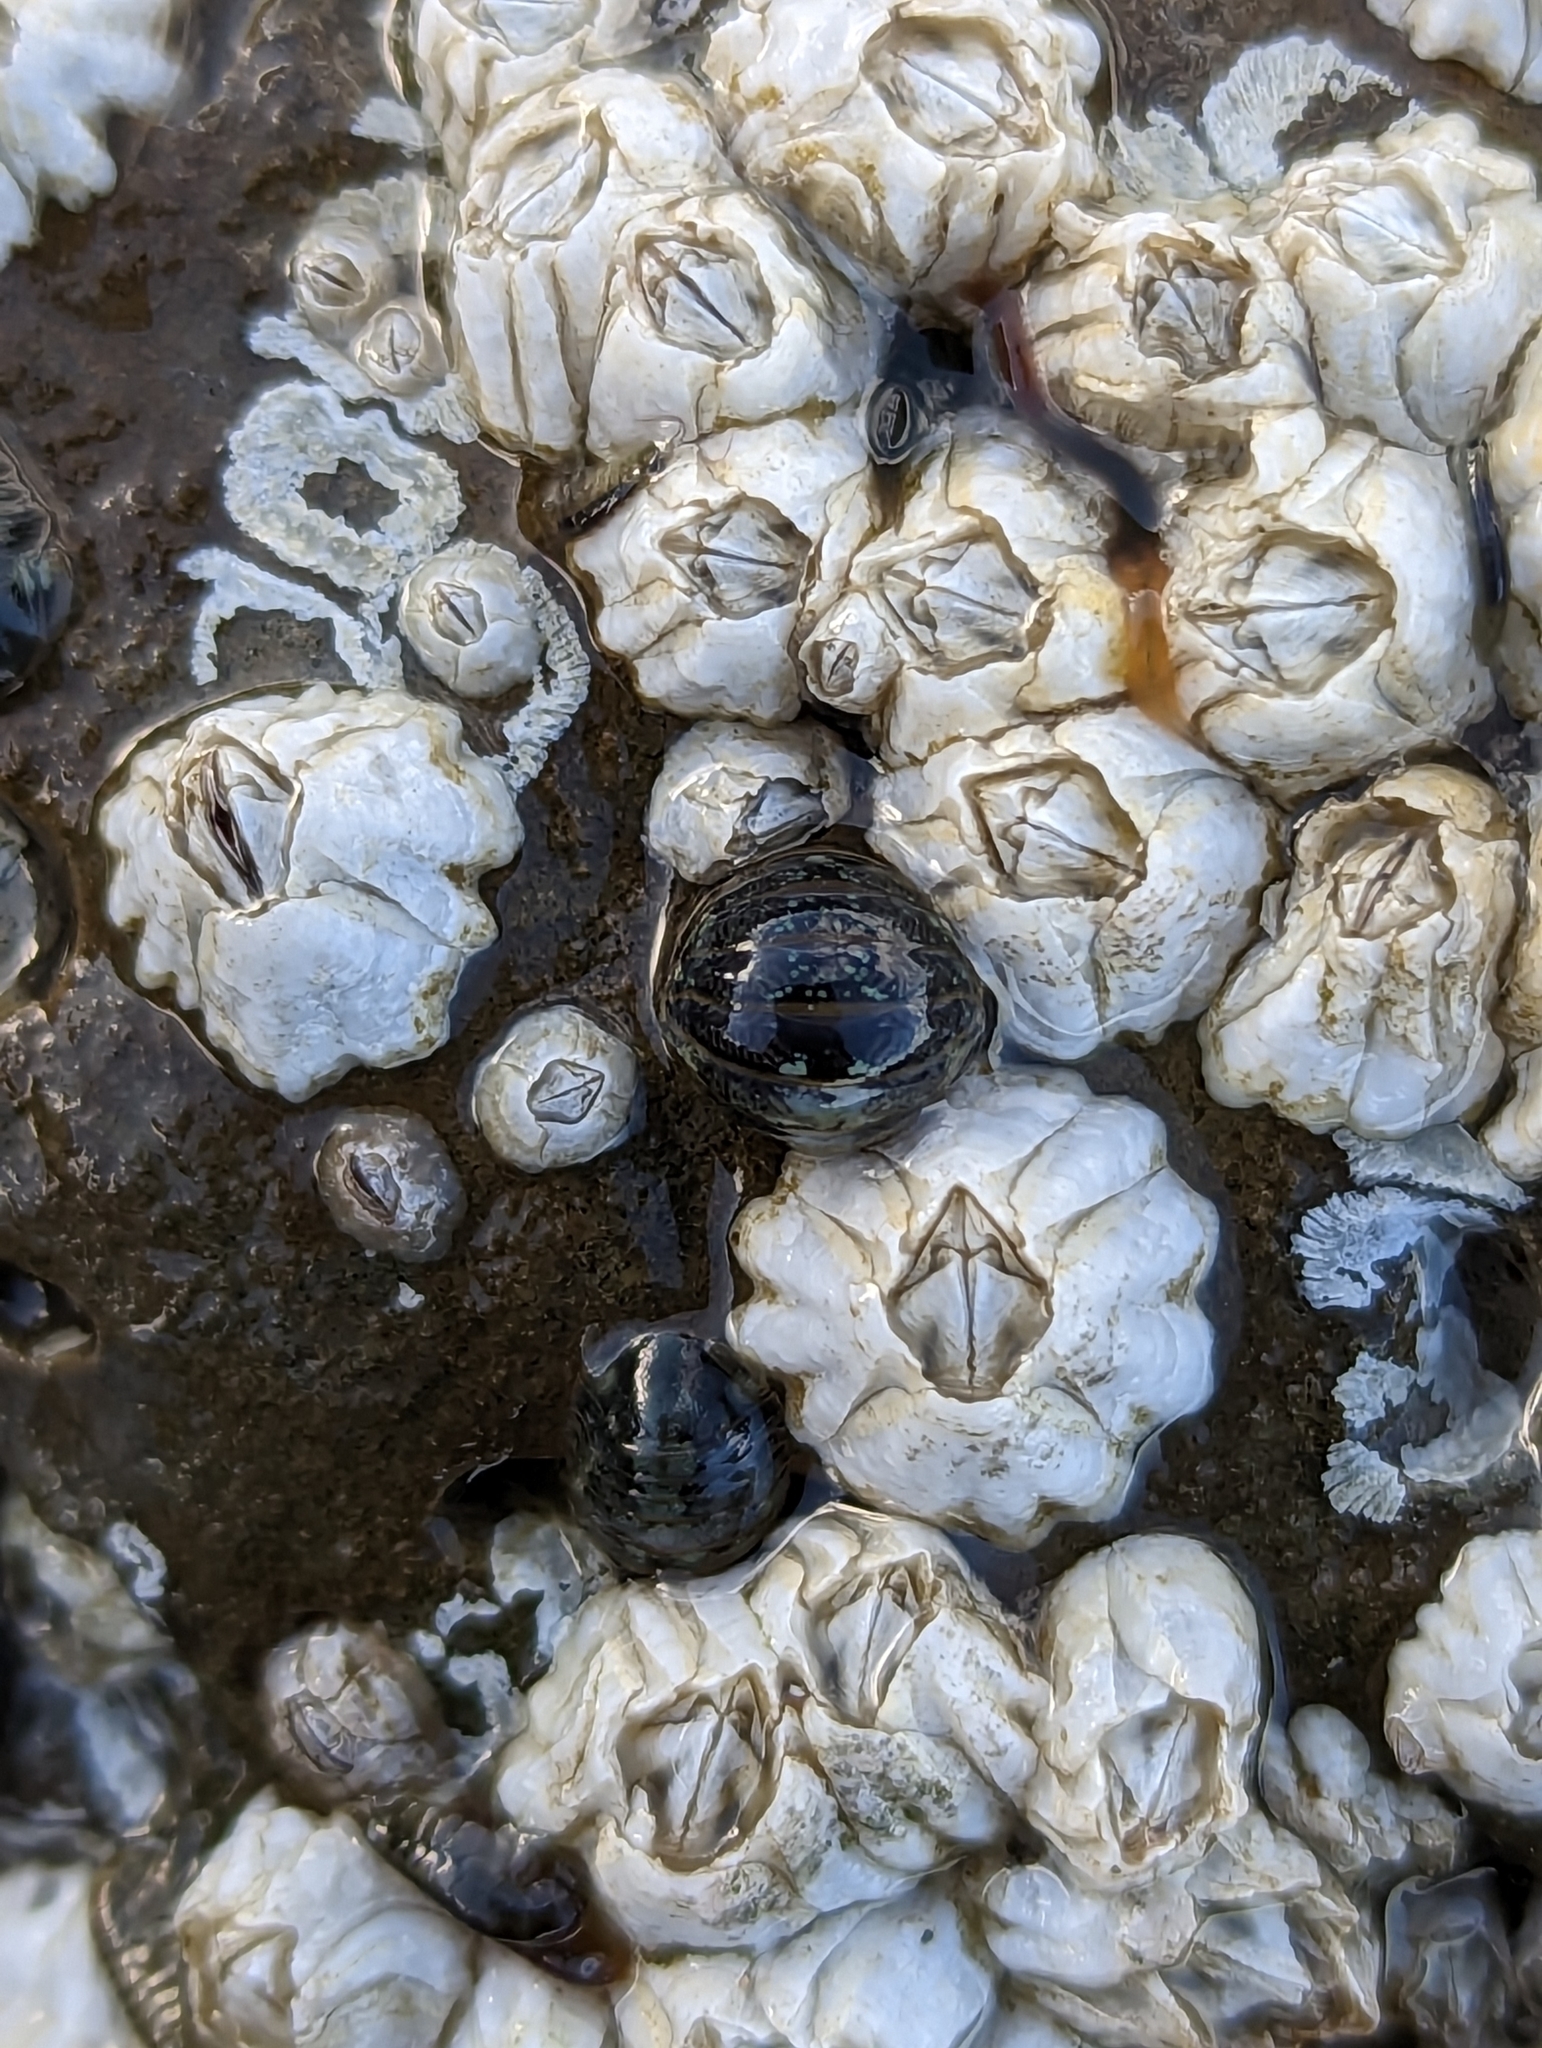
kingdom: Animalia
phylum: Arthropoda
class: Malacostraca
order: Isopoda
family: Sphaeromatidae
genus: Gnorimosphaeroma
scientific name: Gnorimosphaeroma oregonense
